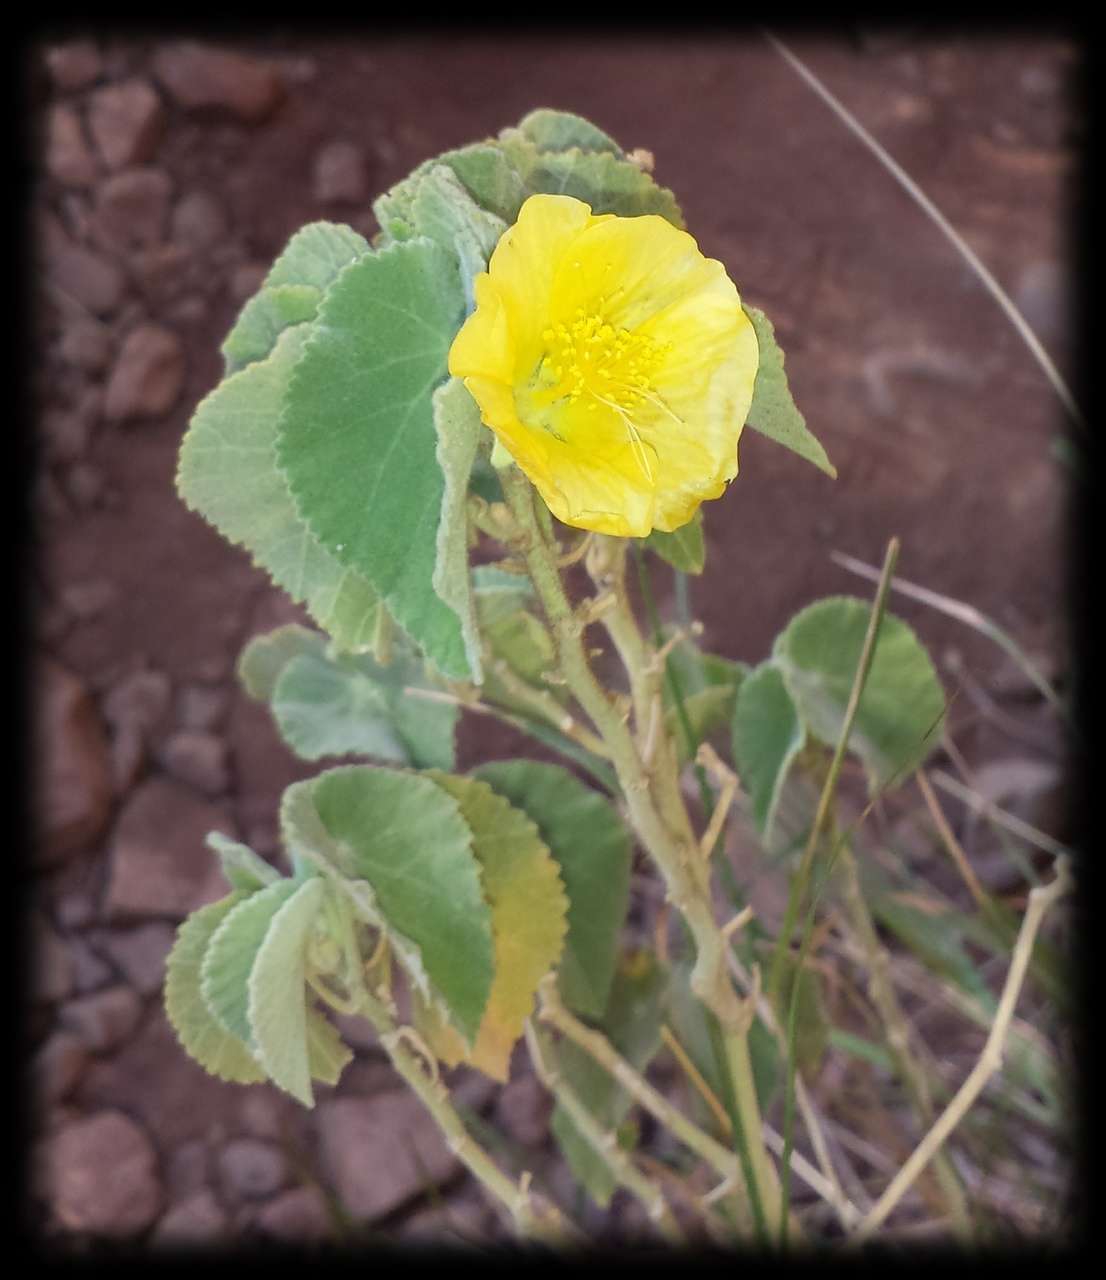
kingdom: Plantae
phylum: Tracheophyta
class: Magnoliopsida
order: Malvales
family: Malvaceae
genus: Abutilon
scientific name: Abutilon otocarpum
